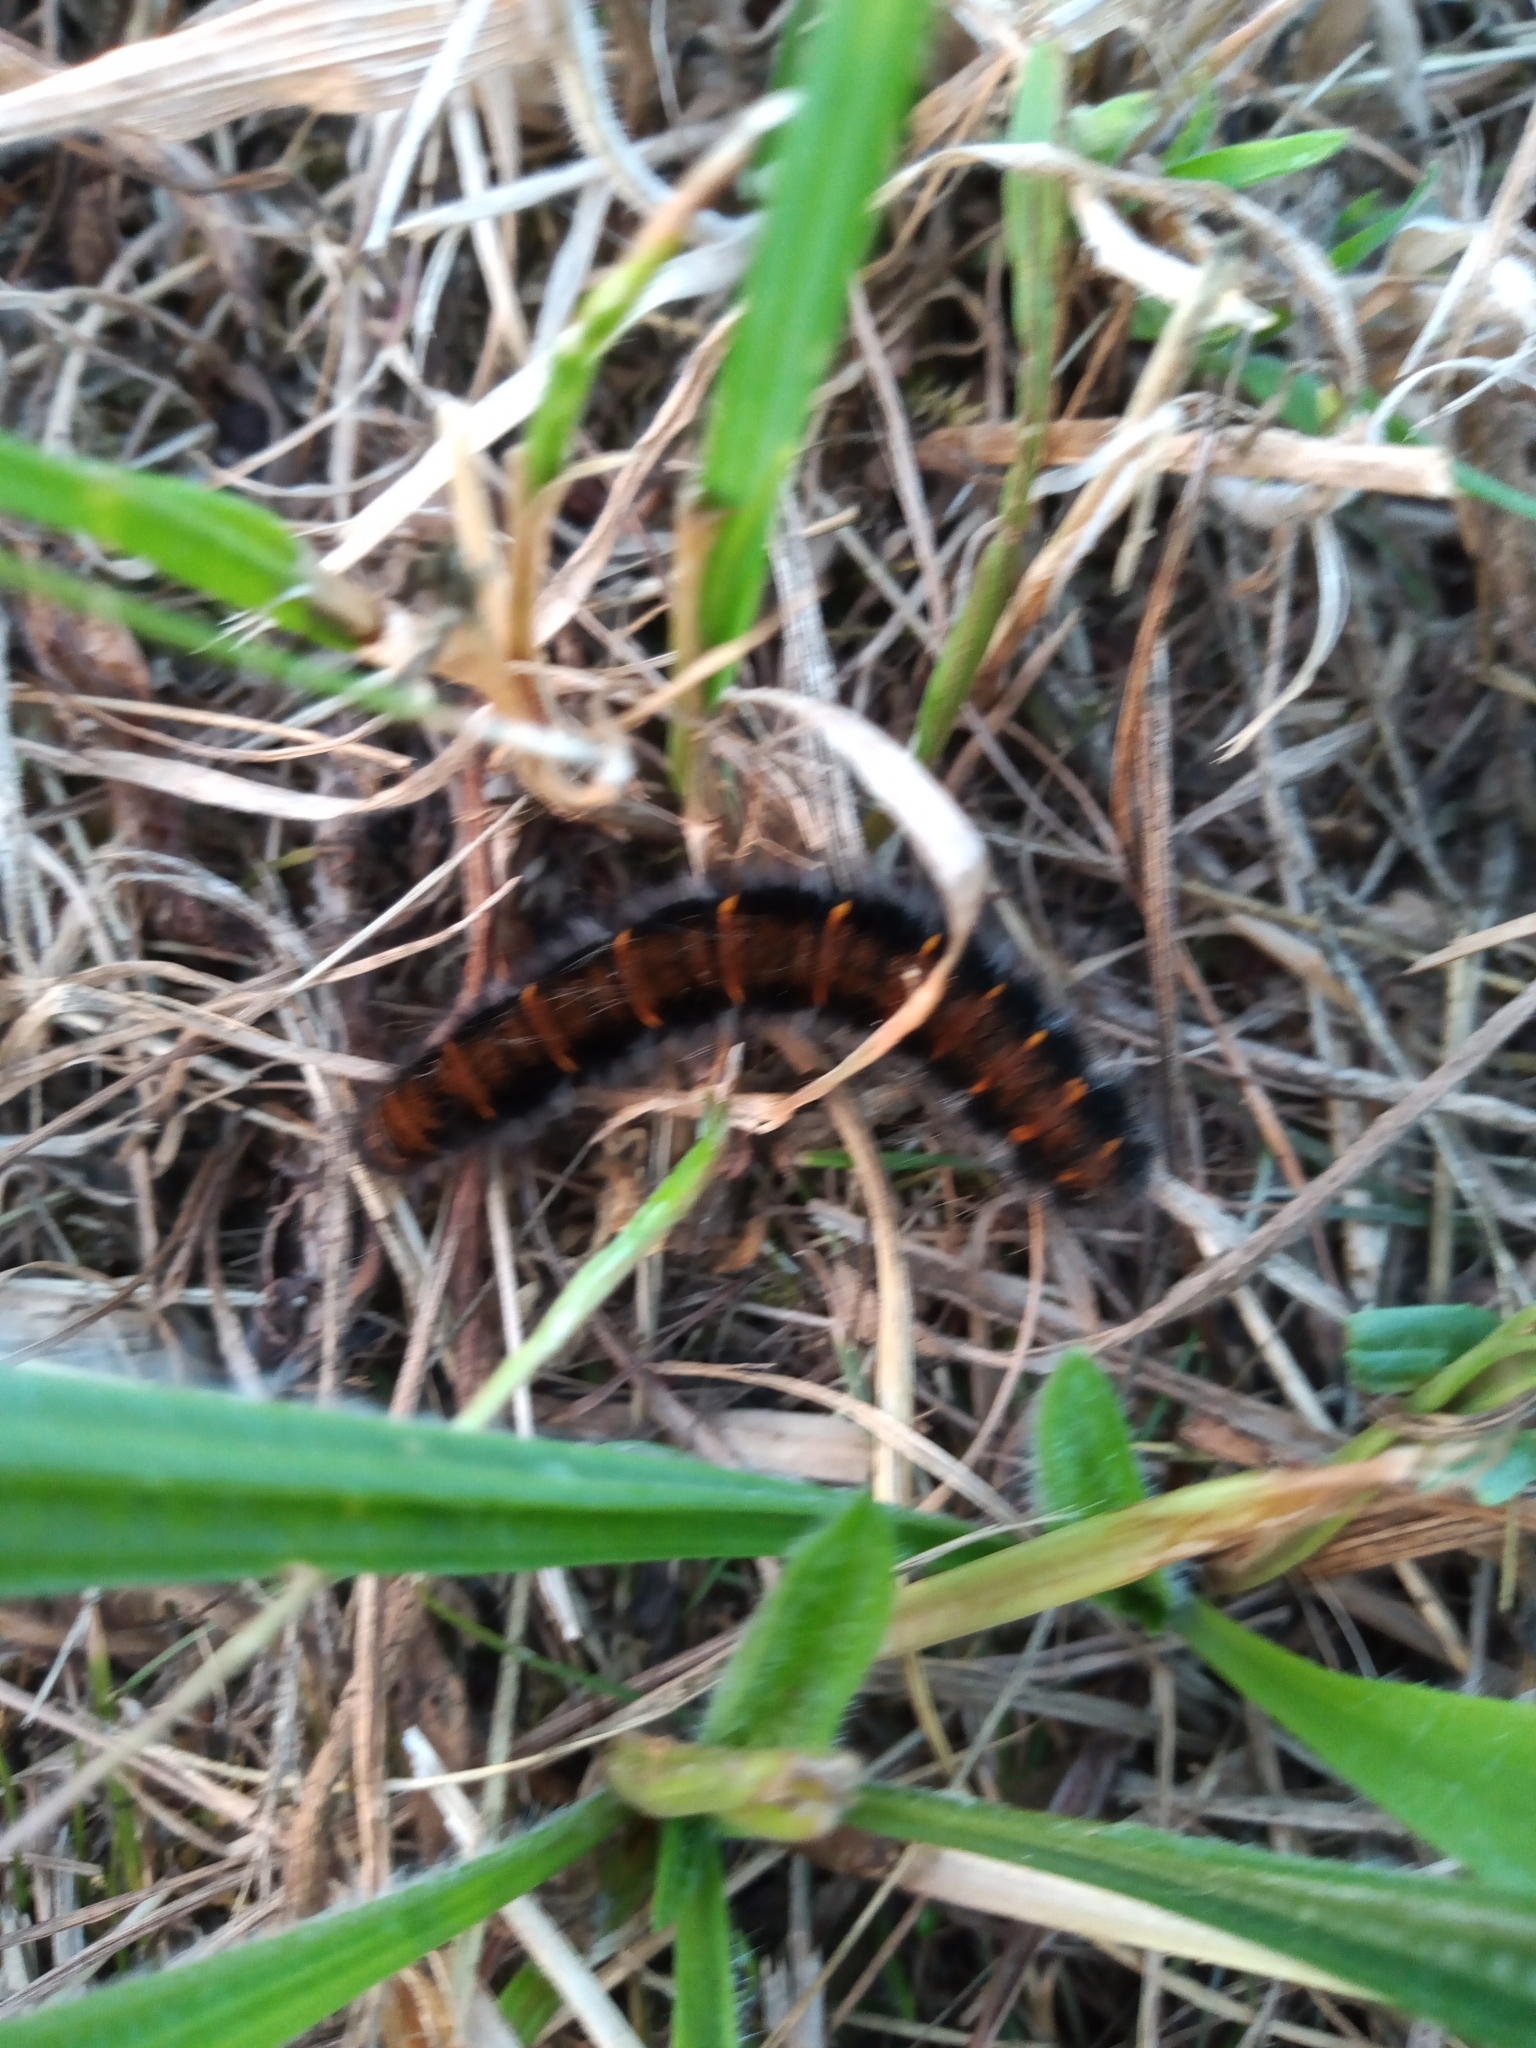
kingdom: Animalia
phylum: Arthropoda
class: Insecta
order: Lepidoptera
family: Lasiocampidae
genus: Macrothylacia
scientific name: Macrothylacia rubi
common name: Fox moth
